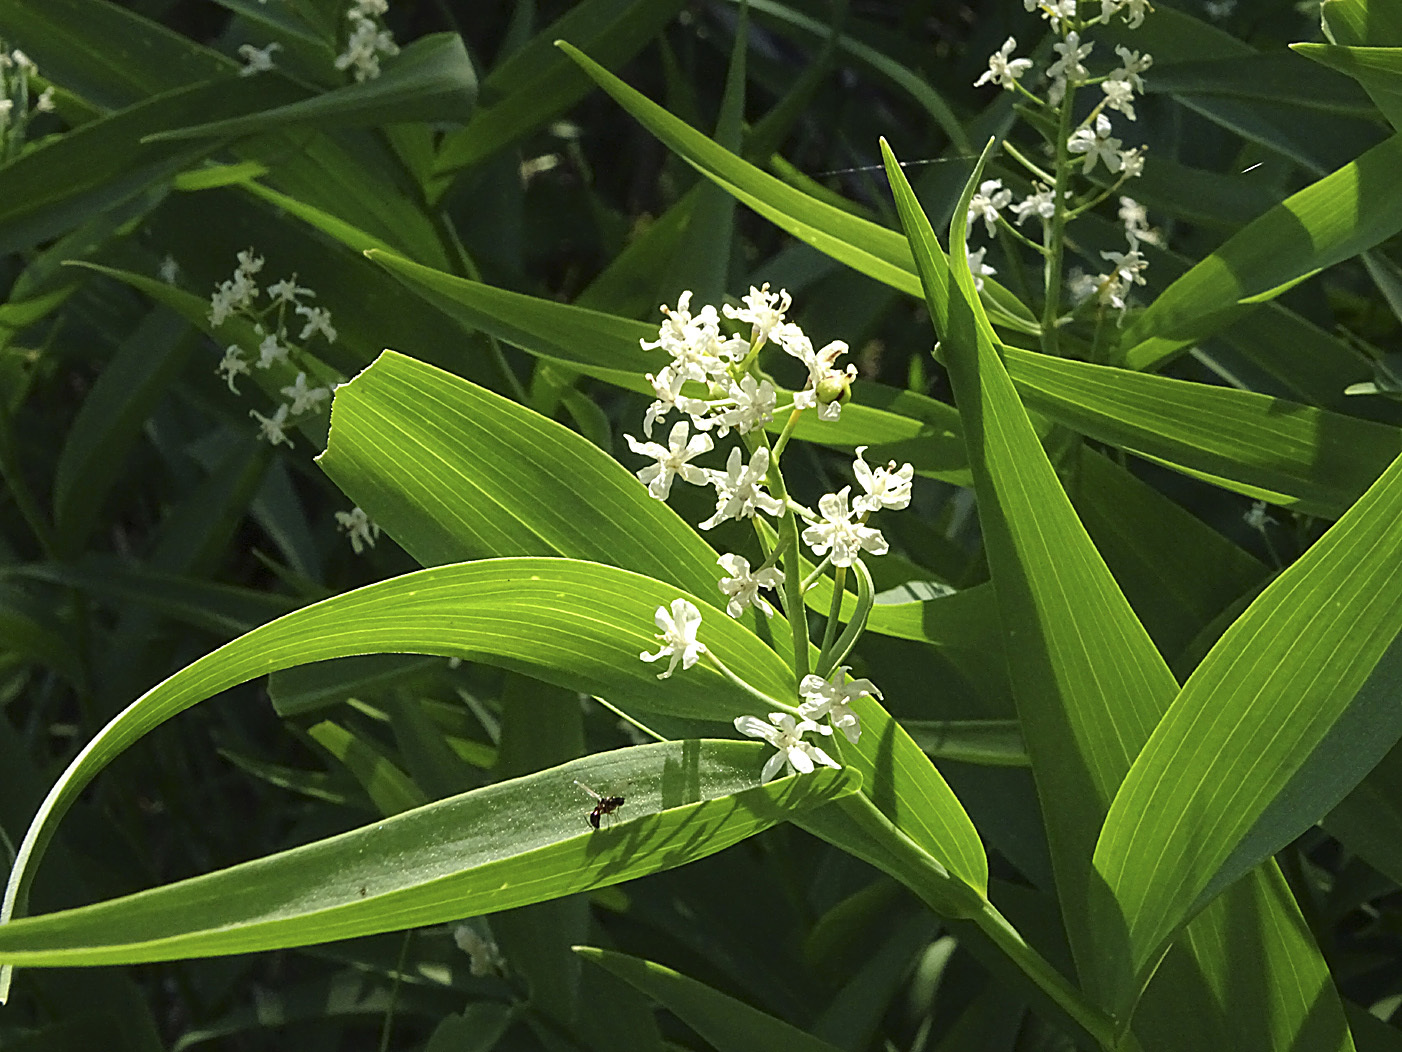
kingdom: Plantae
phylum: Tracheophyta
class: Liliopsida
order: Asparagales
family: Asparagaceae
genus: Maianthemum
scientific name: Maianthemum stellatum
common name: Little false solomon's seal
